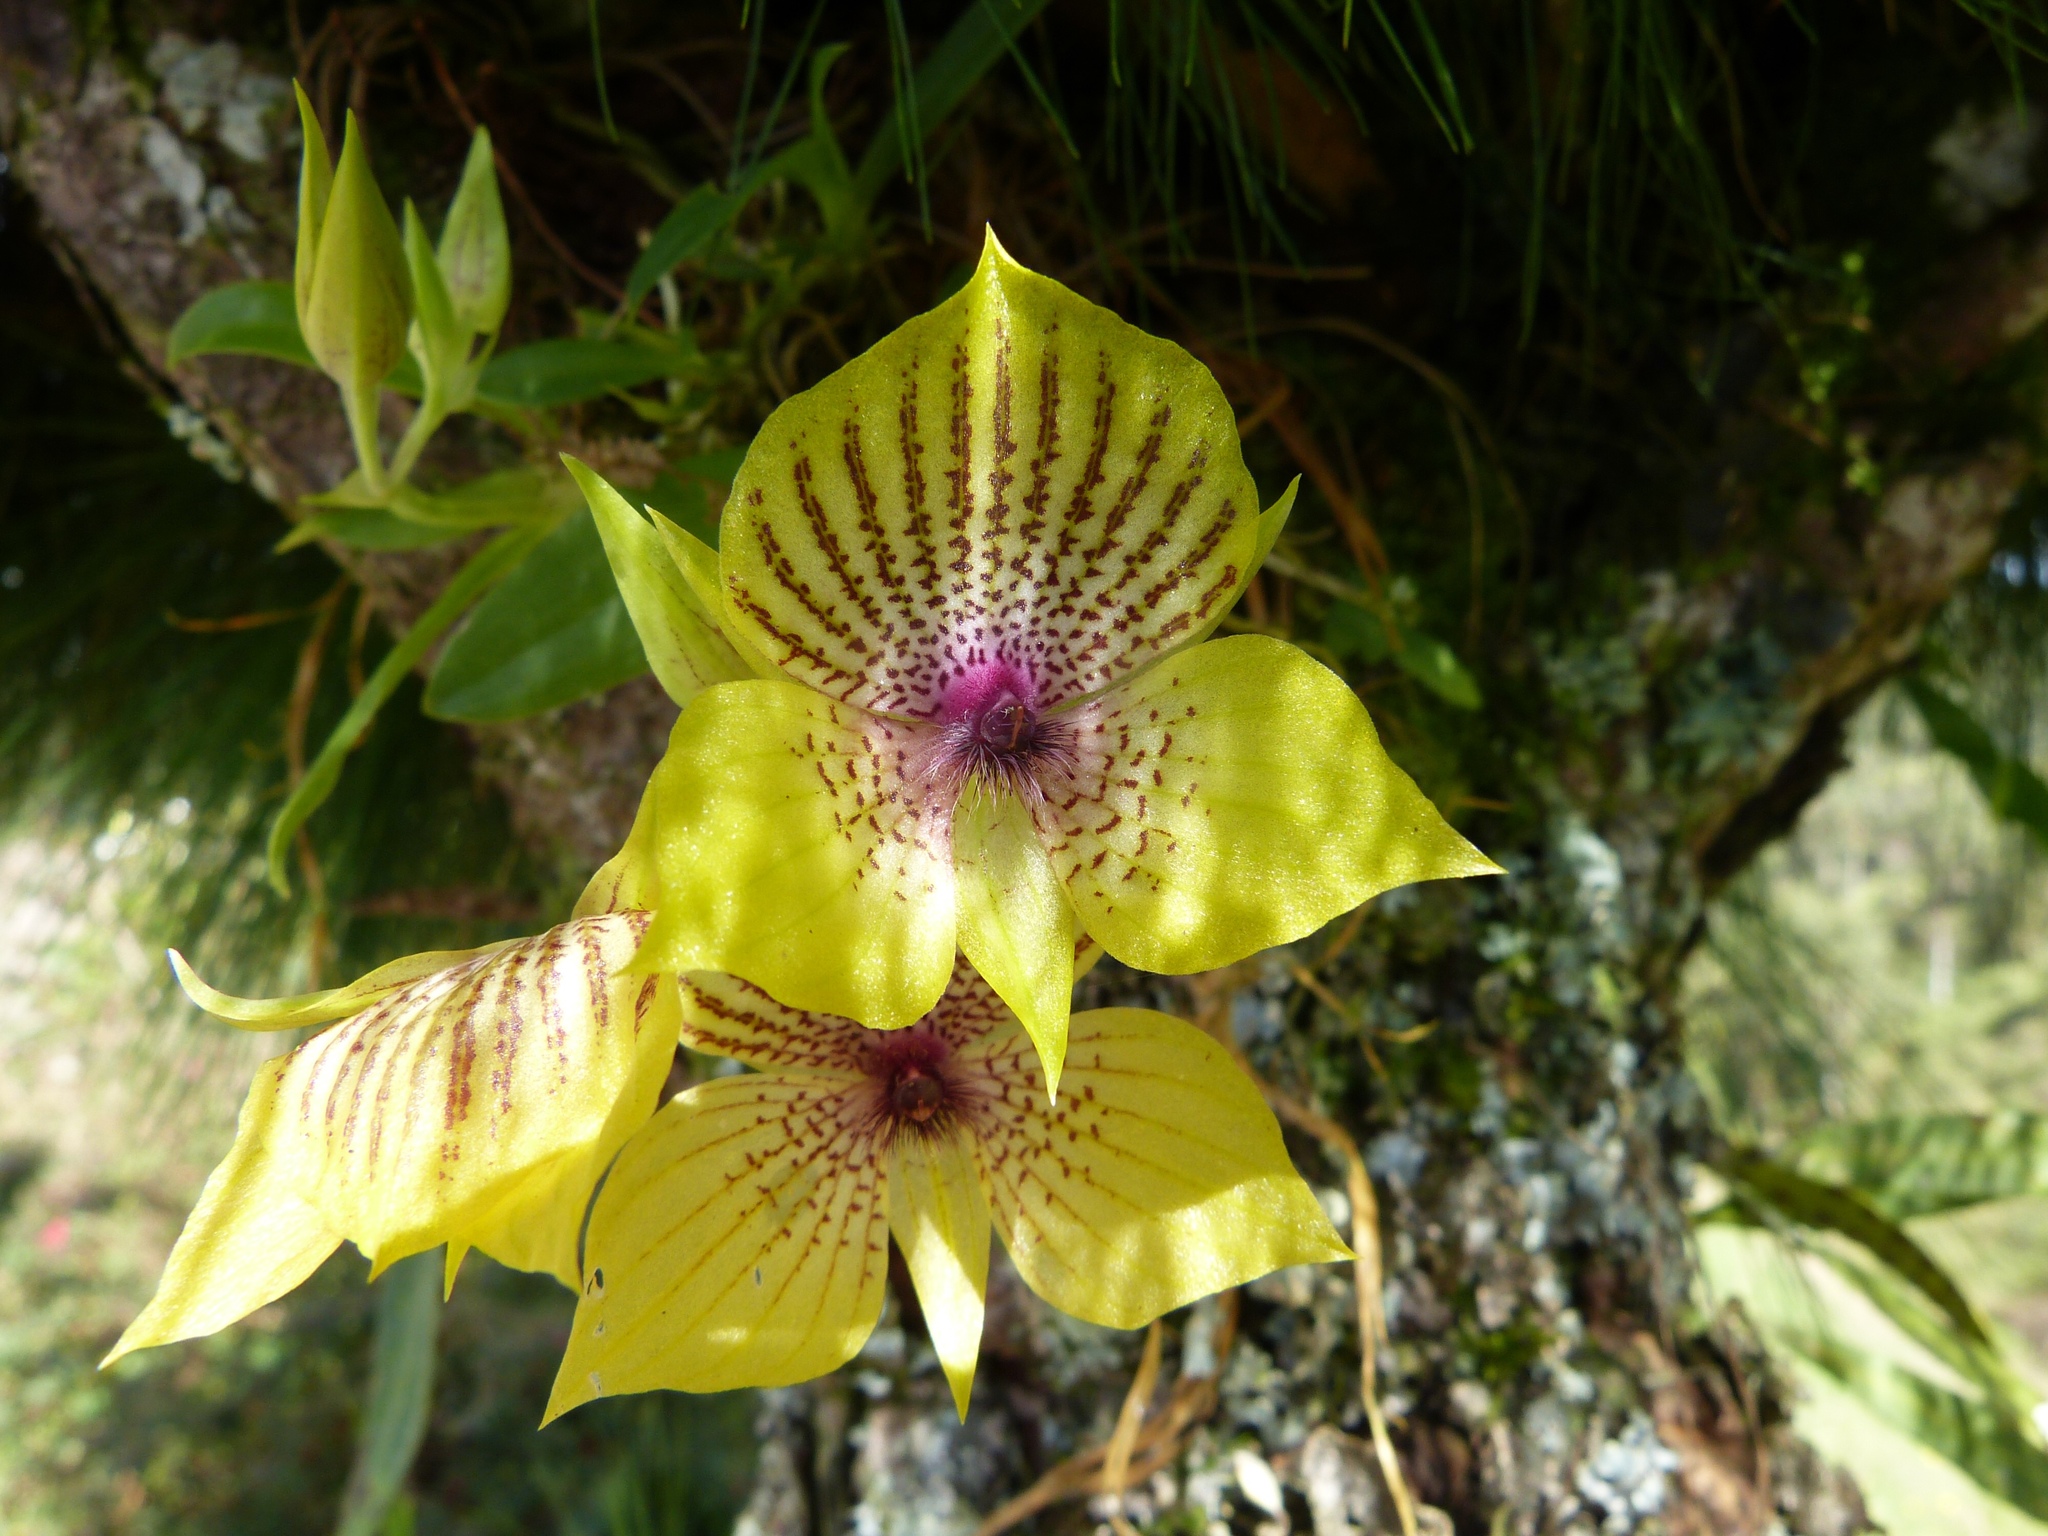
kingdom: Plantae
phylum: Tracheophyta
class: Liliopsida
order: Asparagales
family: Orchidaceae
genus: Telipogon
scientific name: Telipogon yolandae
